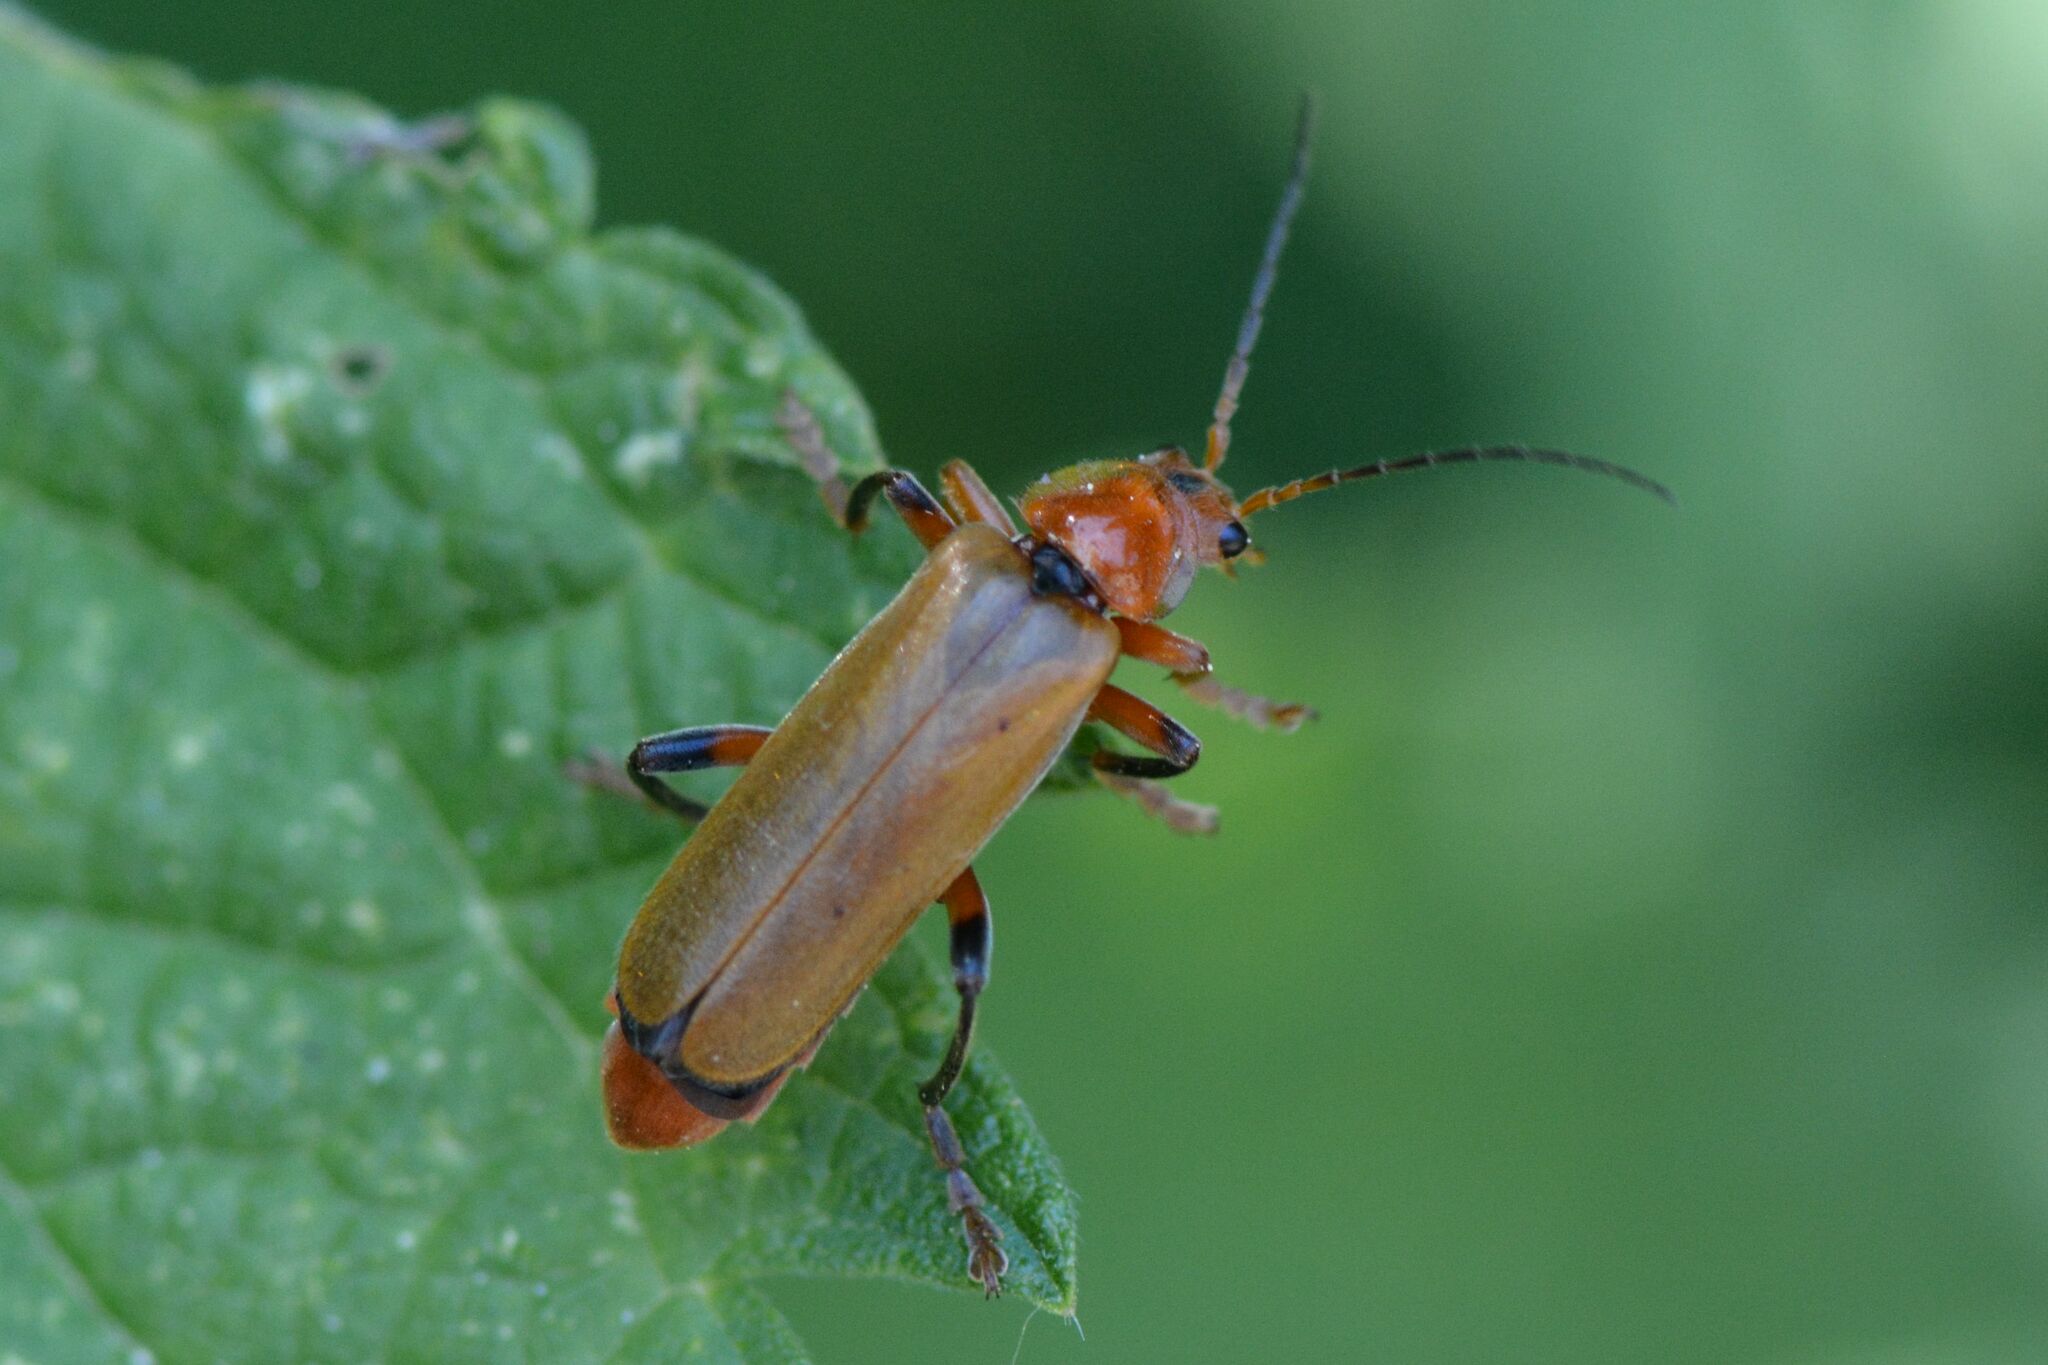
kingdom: Animalia
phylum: Arthropoda
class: Insecta
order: Coleoptera
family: Cantharidae
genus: Cantharis
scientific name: Cantharis livida
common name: Livid soldier beetle
